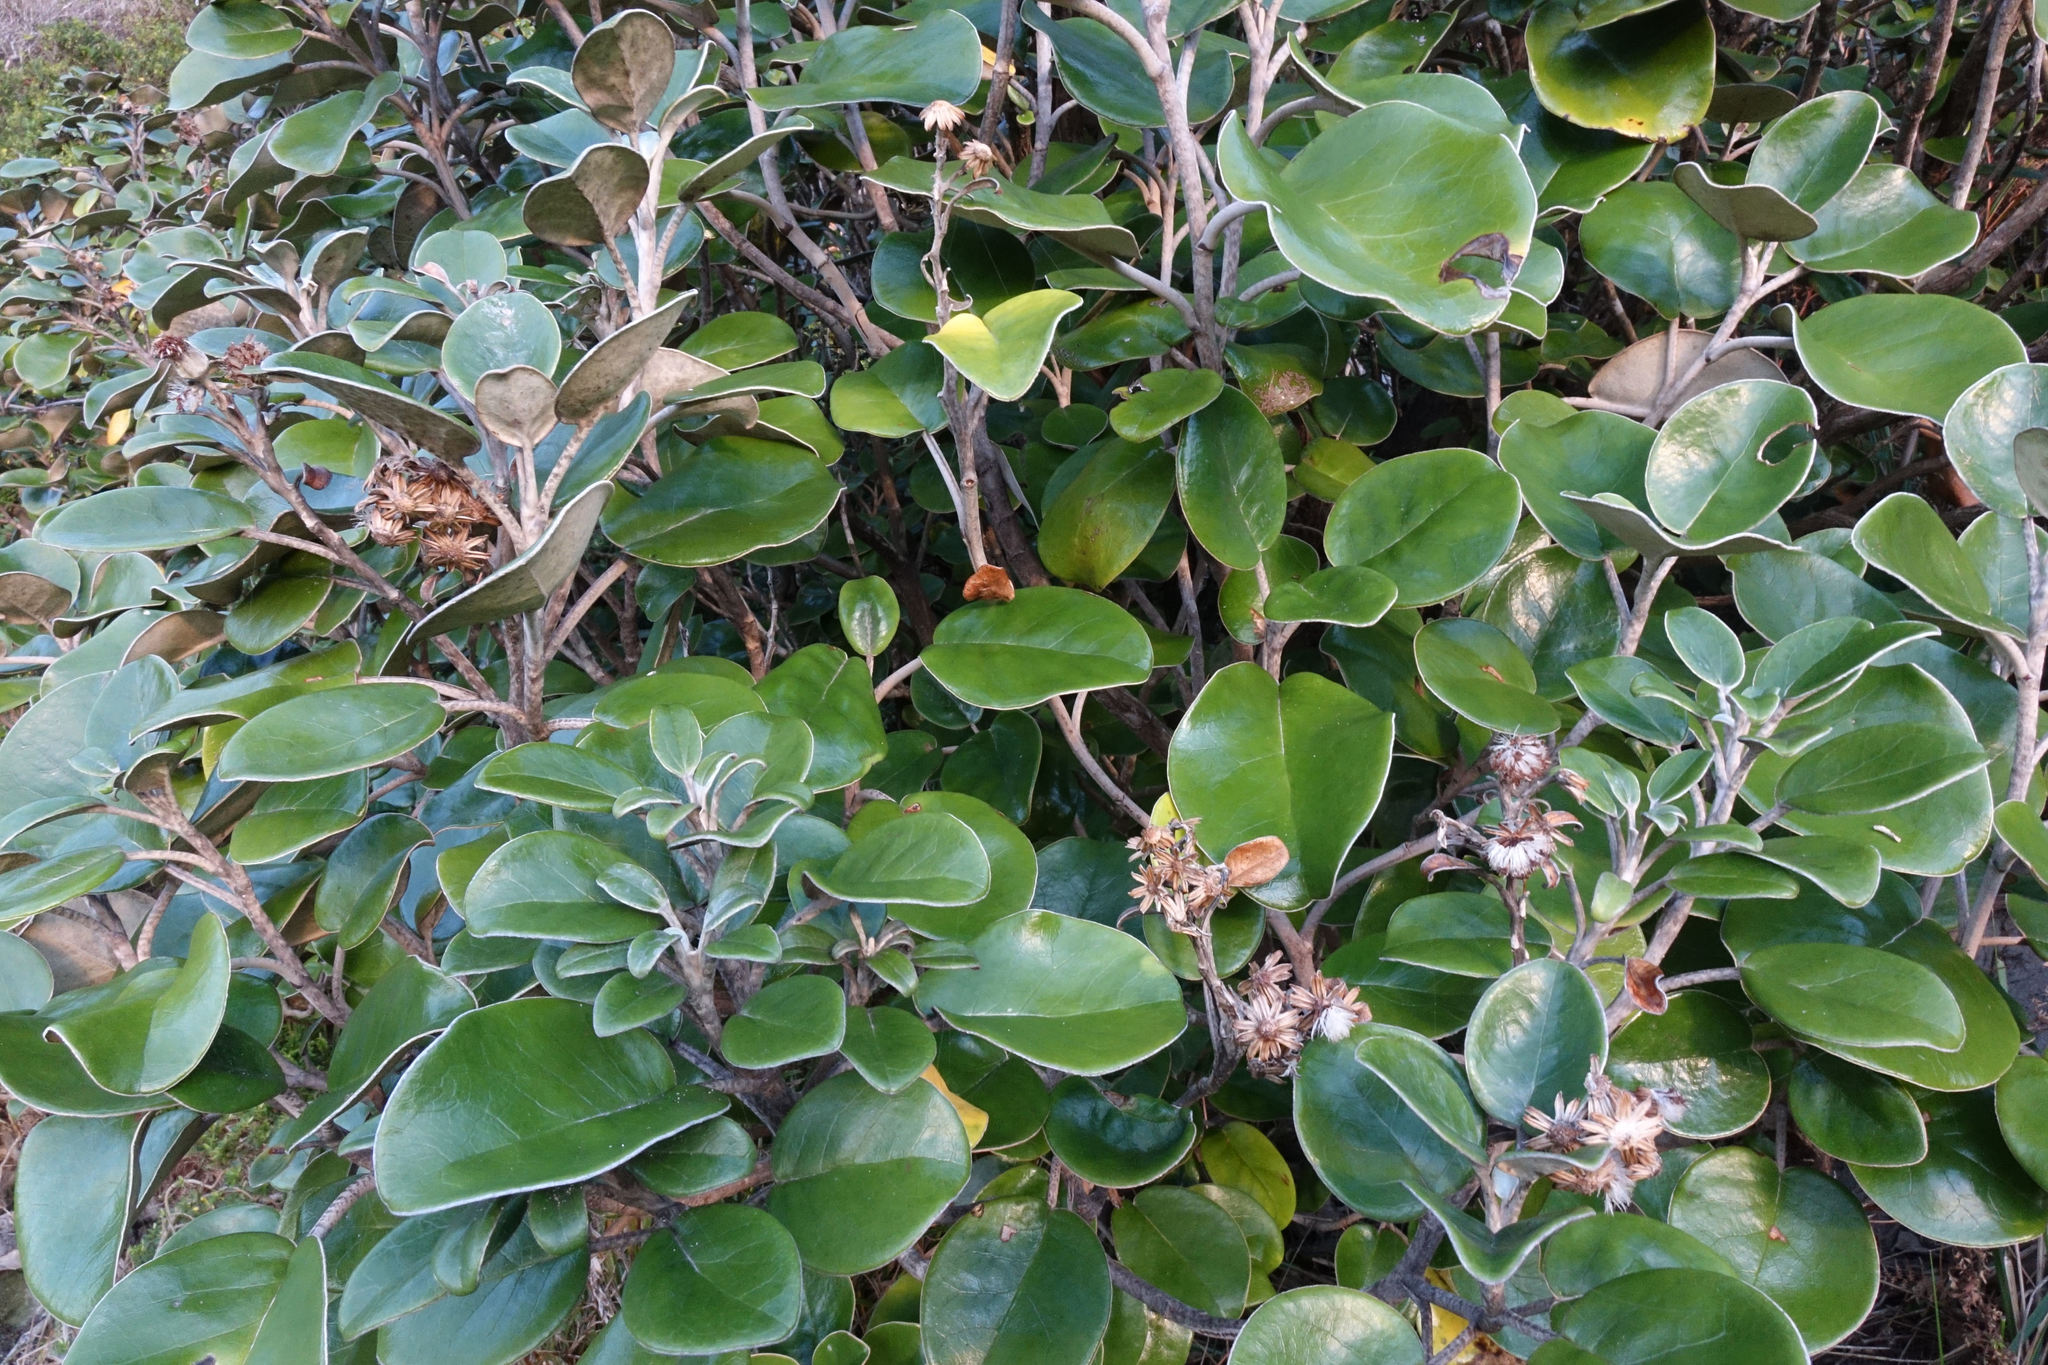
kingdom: Plantae
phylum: Tracheophyta
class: Magnoliopsida
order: Asterales
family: Asteraceae
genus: Brachyglottis
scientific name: Brachyglottis rotundifolia
